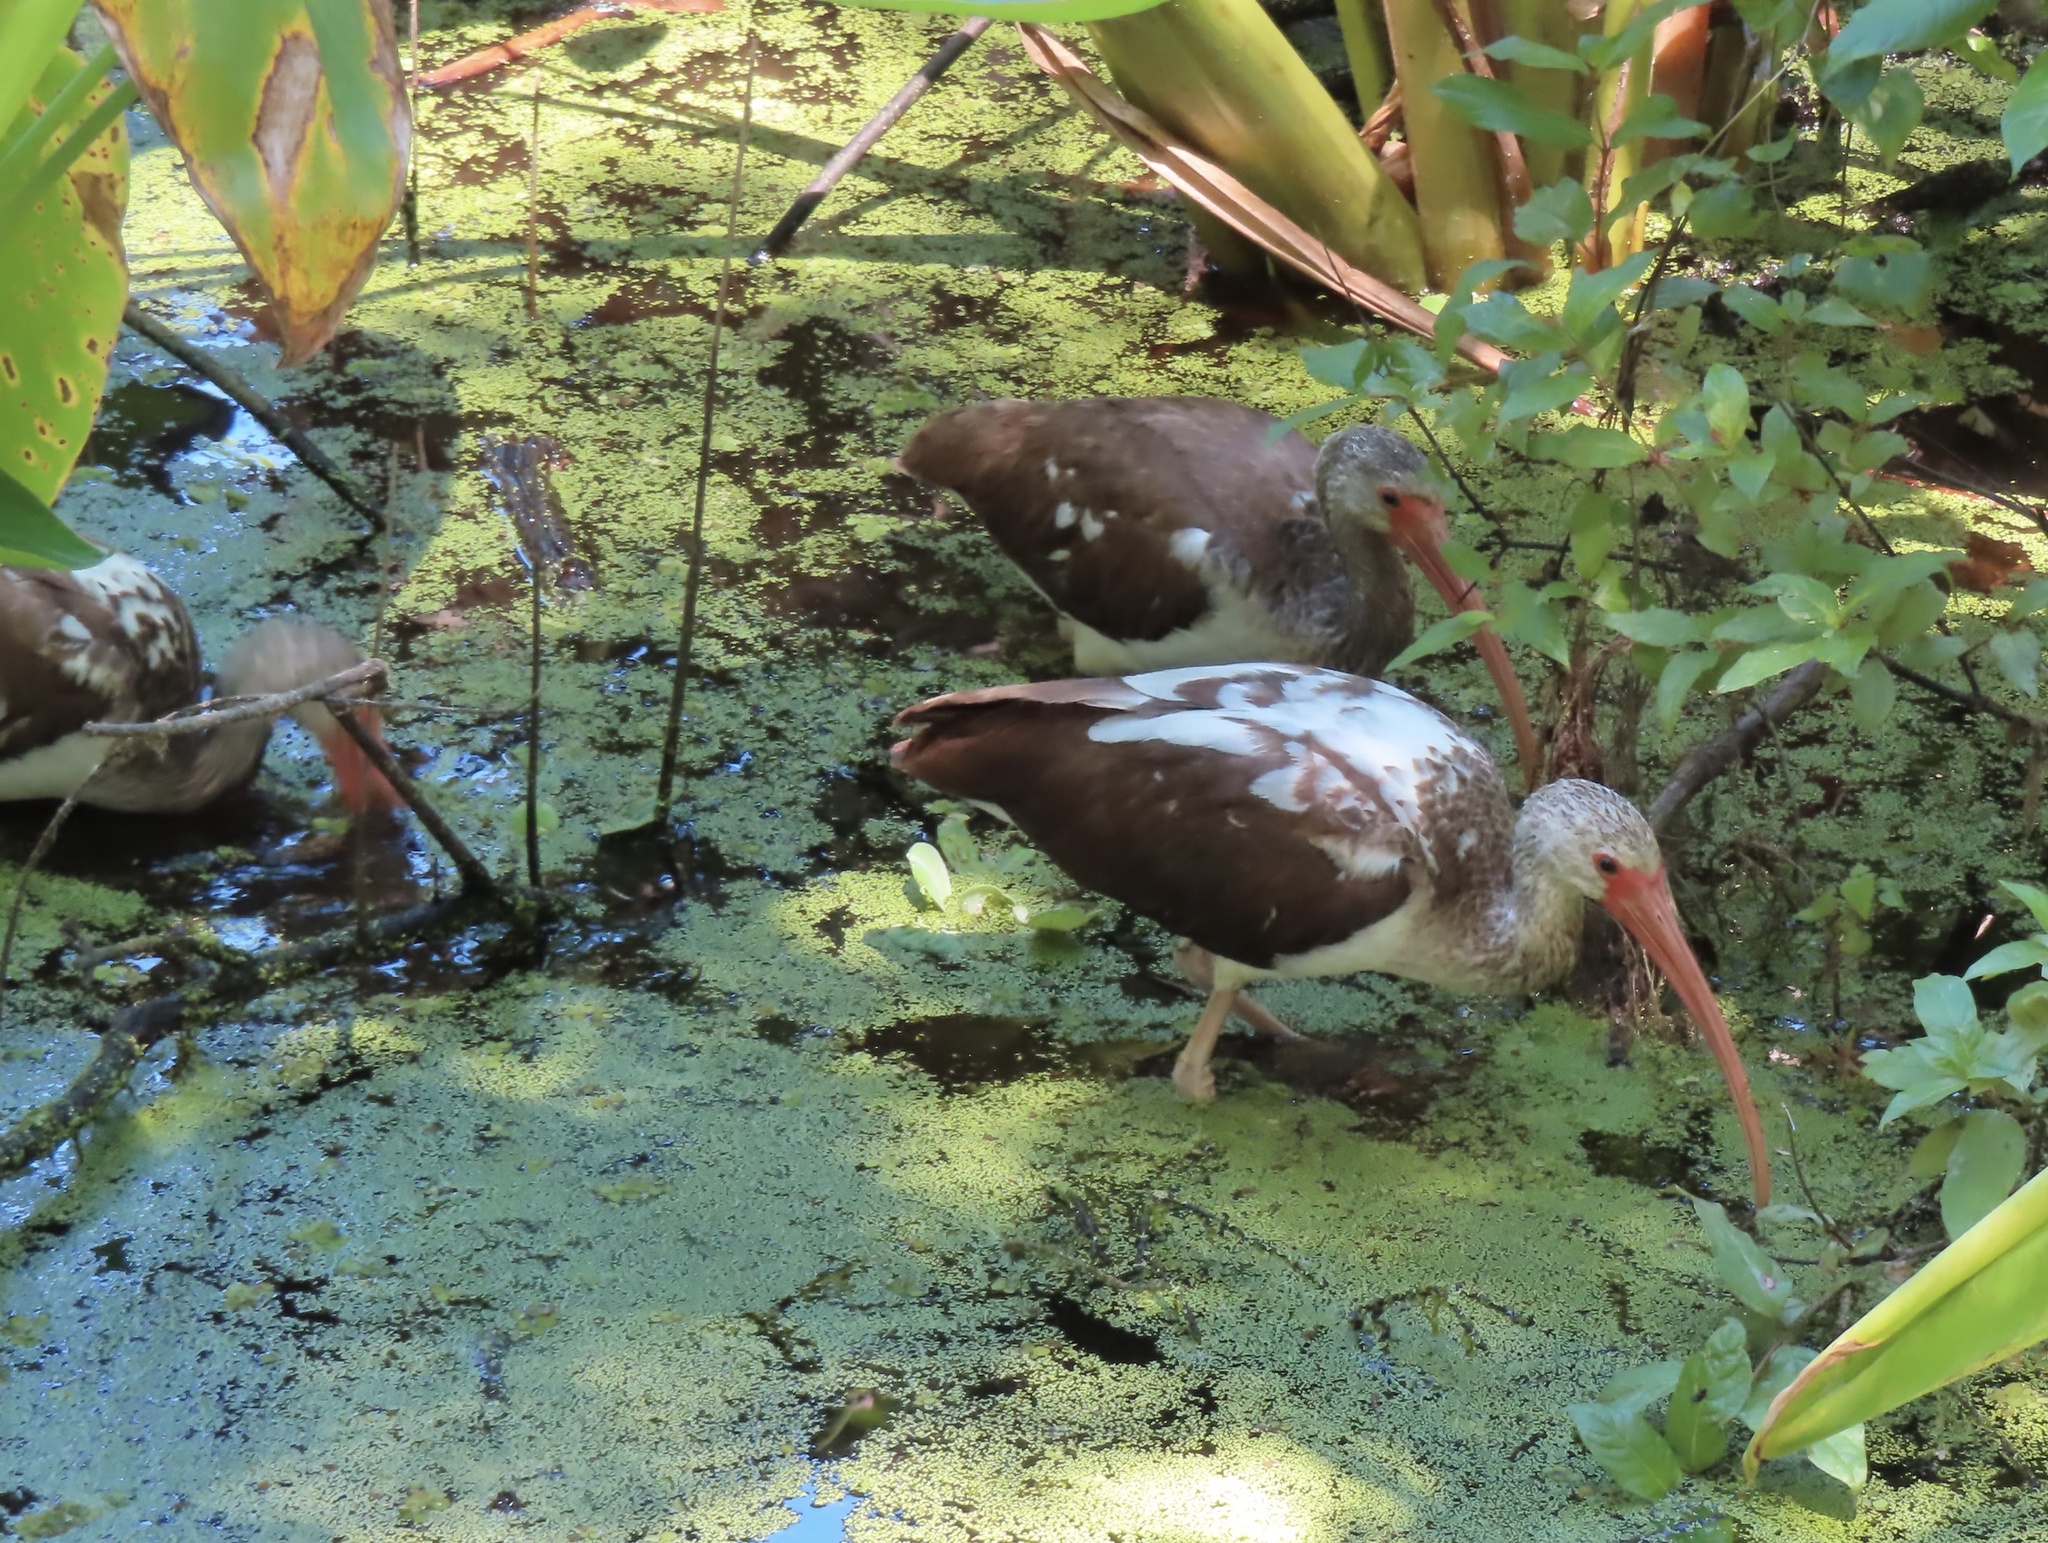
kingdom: Animalia
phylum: Chordata
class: Aves
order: Pelecaniformes
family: Threskiornithidae
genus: Eudocimus
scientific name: Eudocimus albus
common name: White ibis
